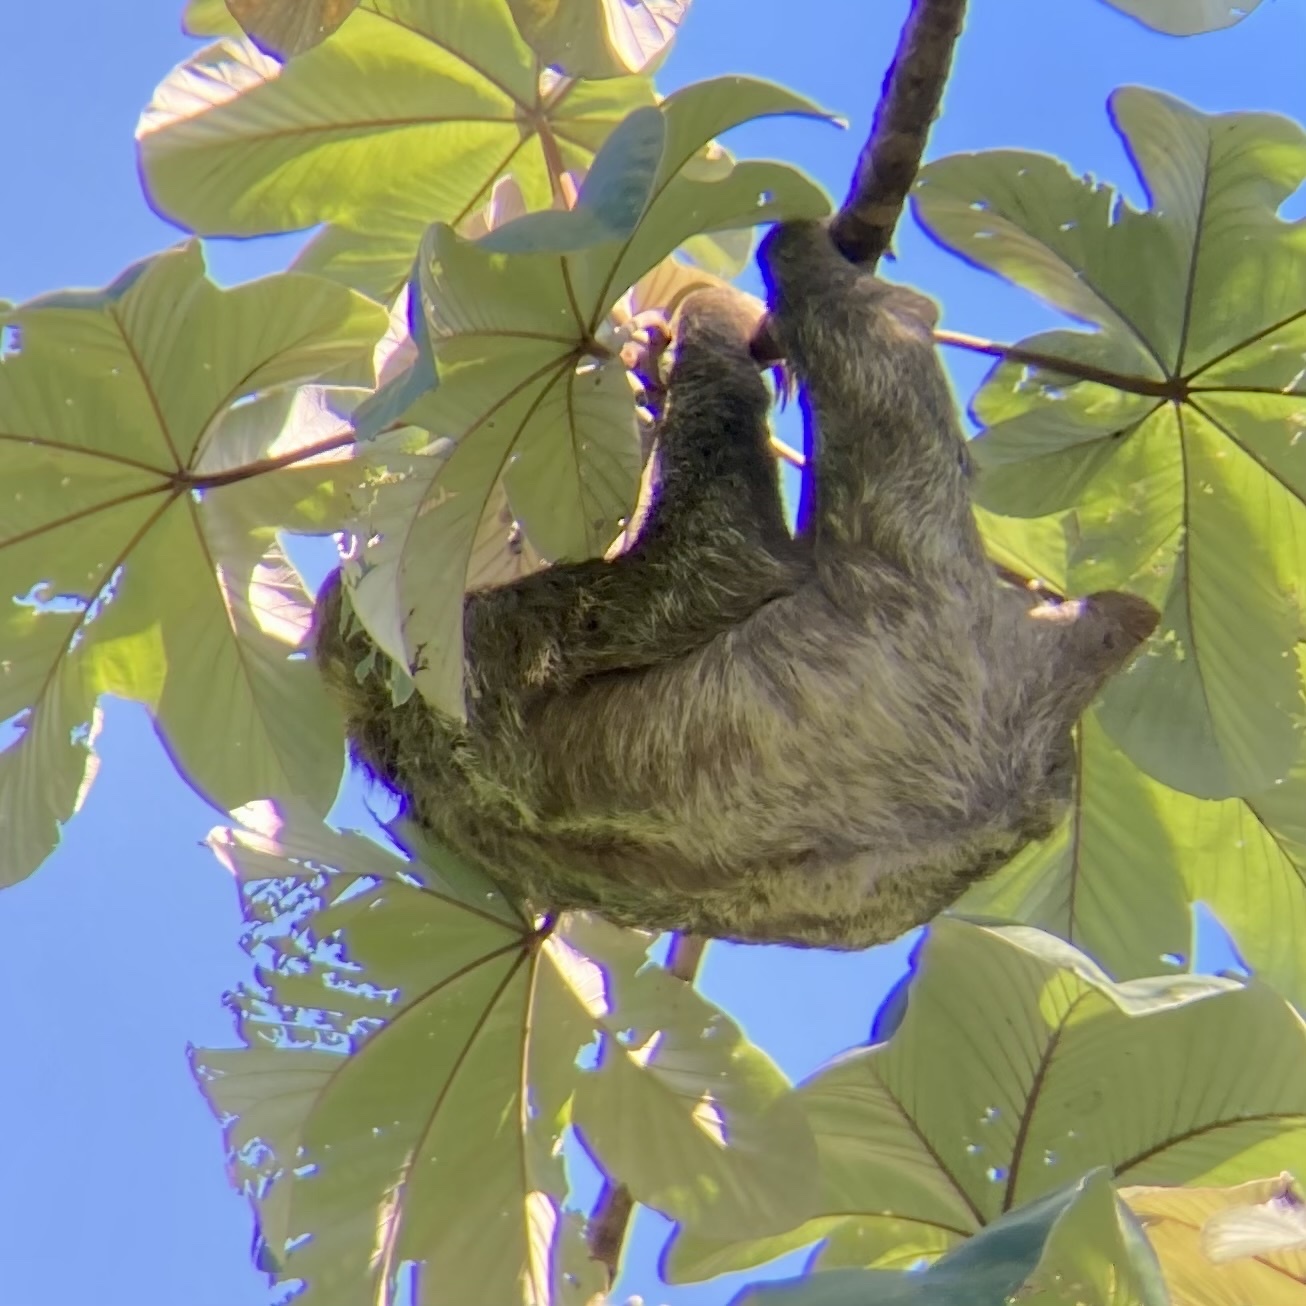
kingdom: Animalia
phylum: Chordata
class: Mammalia
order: Pilosa
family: Bradypodidae
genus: Bradypus
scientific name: Bradypus variegatus
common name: Brown-throated three-toed sloth
